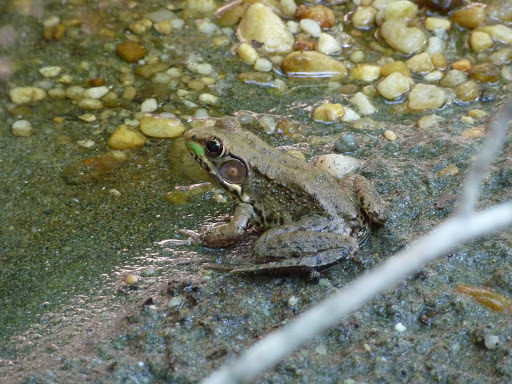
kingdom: Animalia
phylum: Chordata
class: Amphibia
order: Anura
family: Ranidae
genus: Lithobates
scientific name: Lithobates clamitans
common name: Green frog
